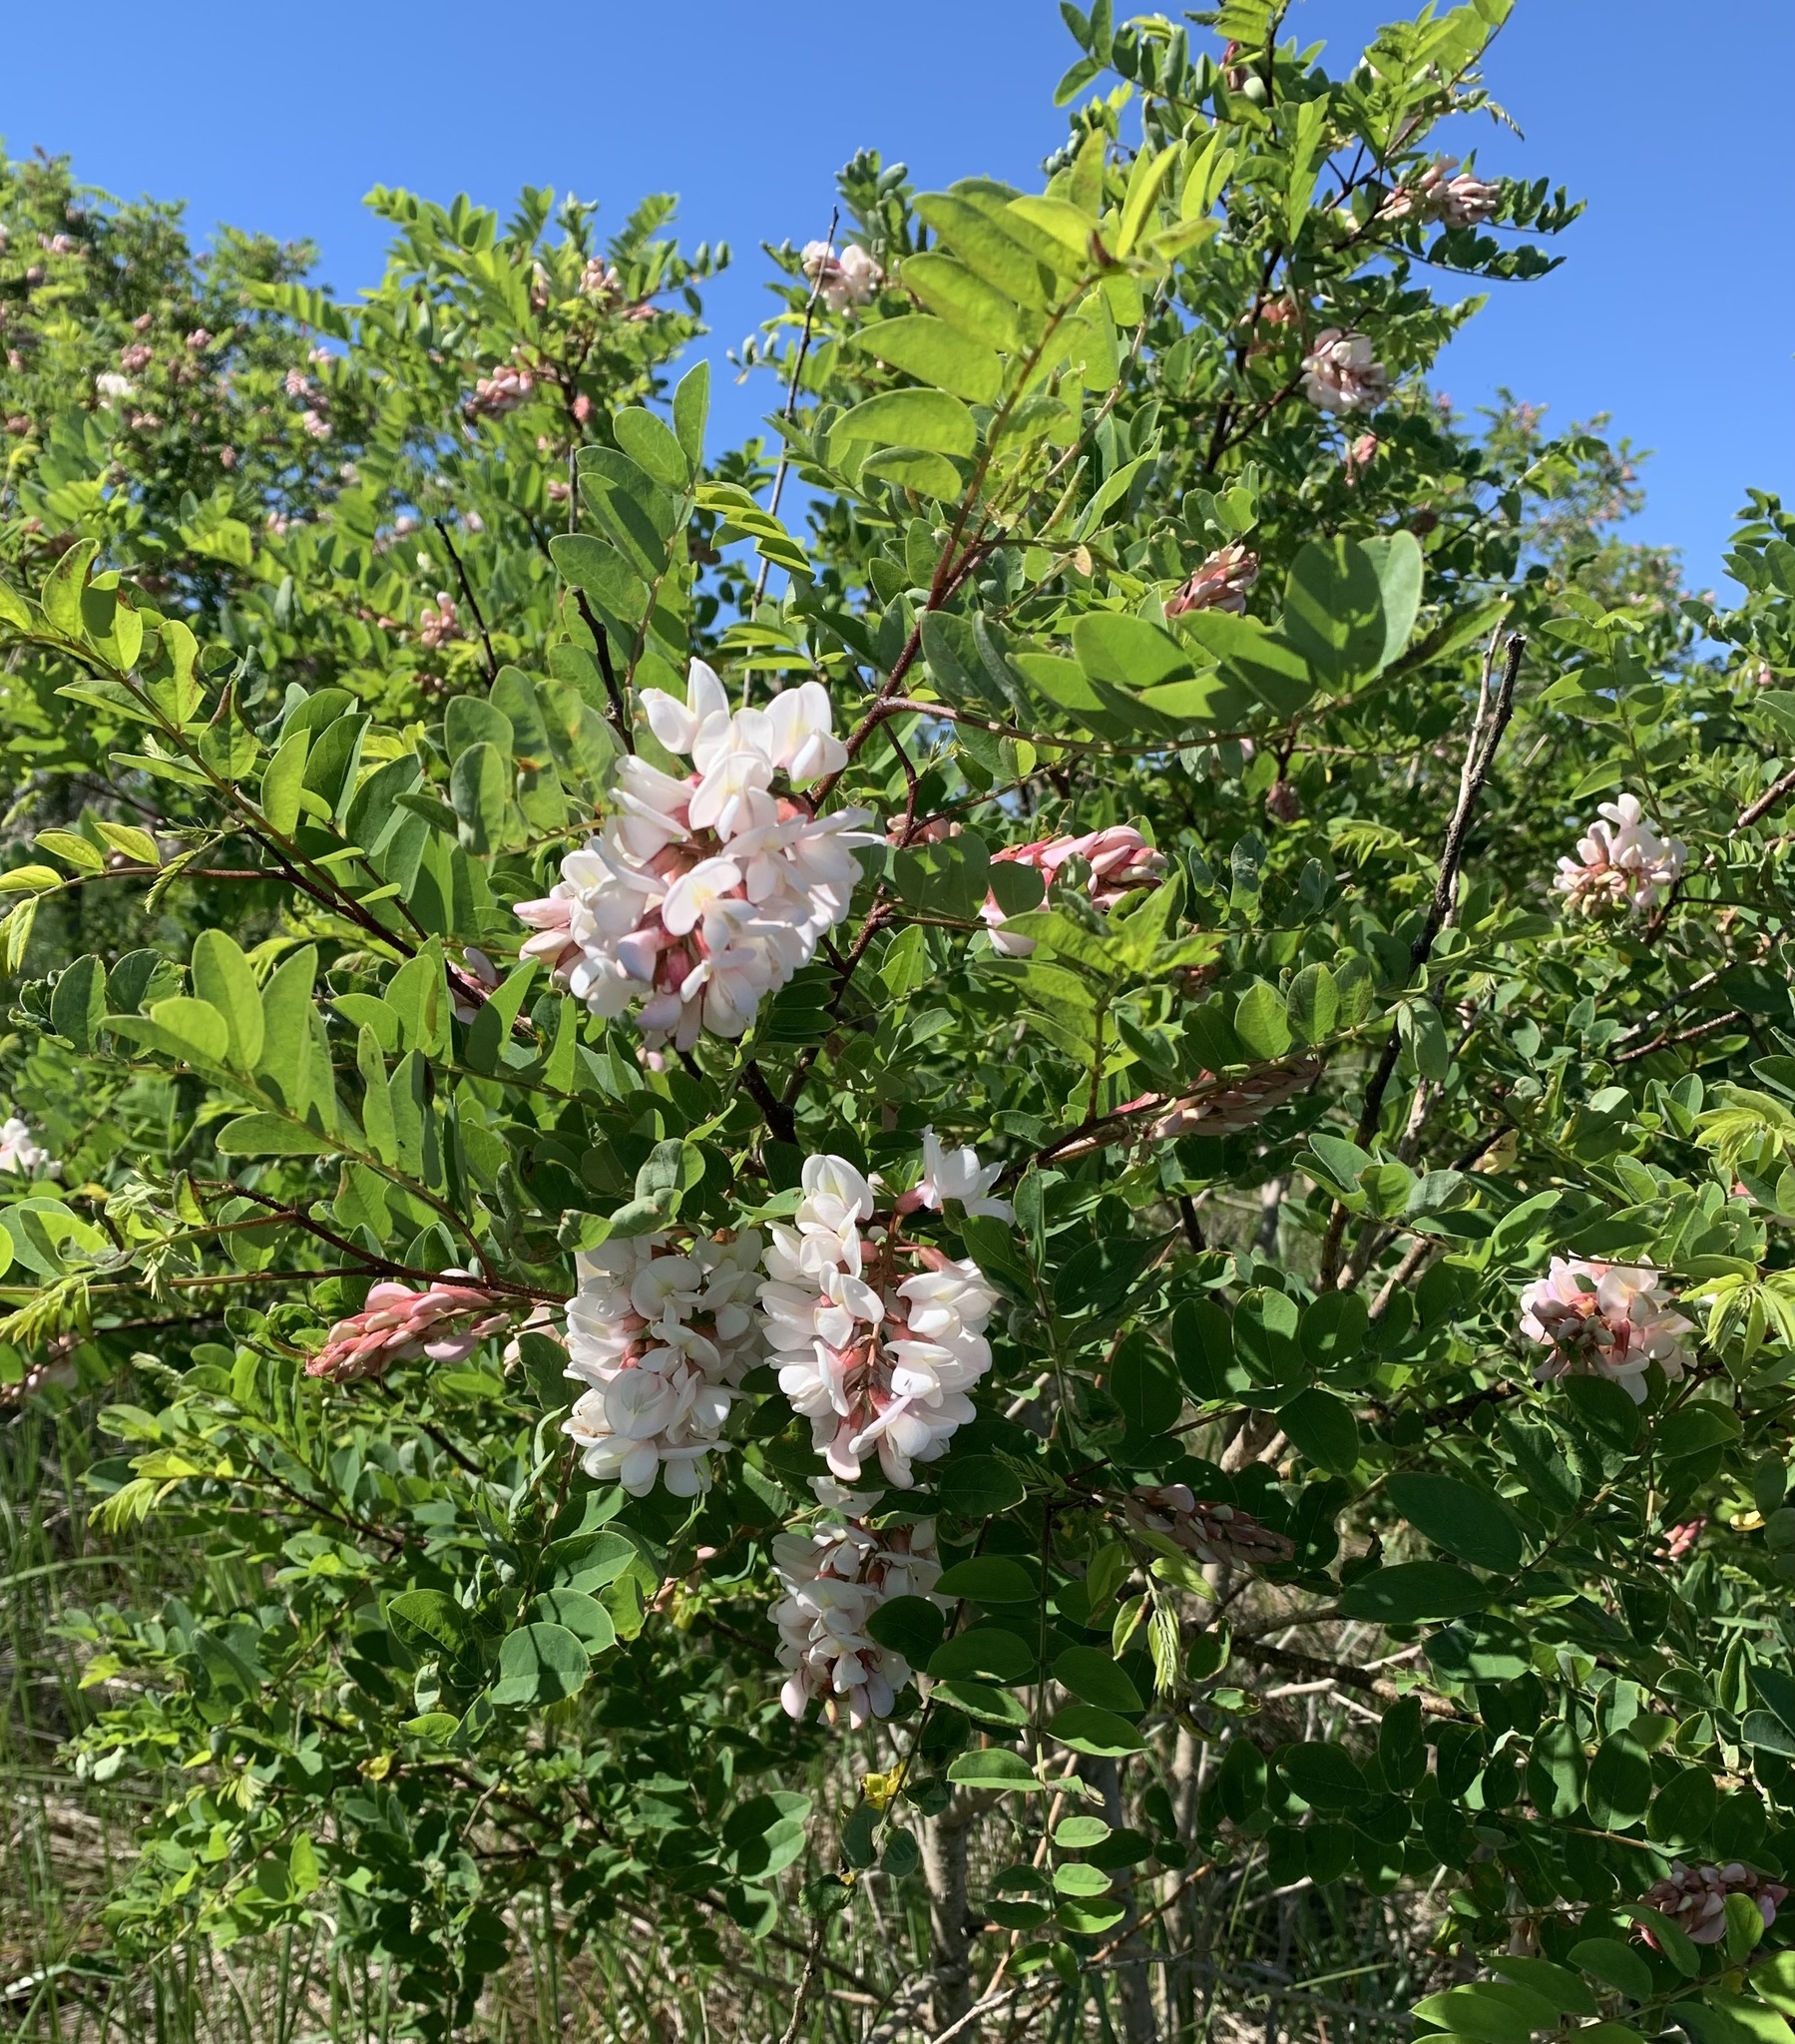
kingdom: Plantae
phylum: Tracheophyta
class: Magnoliopsida
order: Fabales
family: Fabaceae
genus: Robinia
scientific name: Robinia viscosa
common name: Clammy locust
